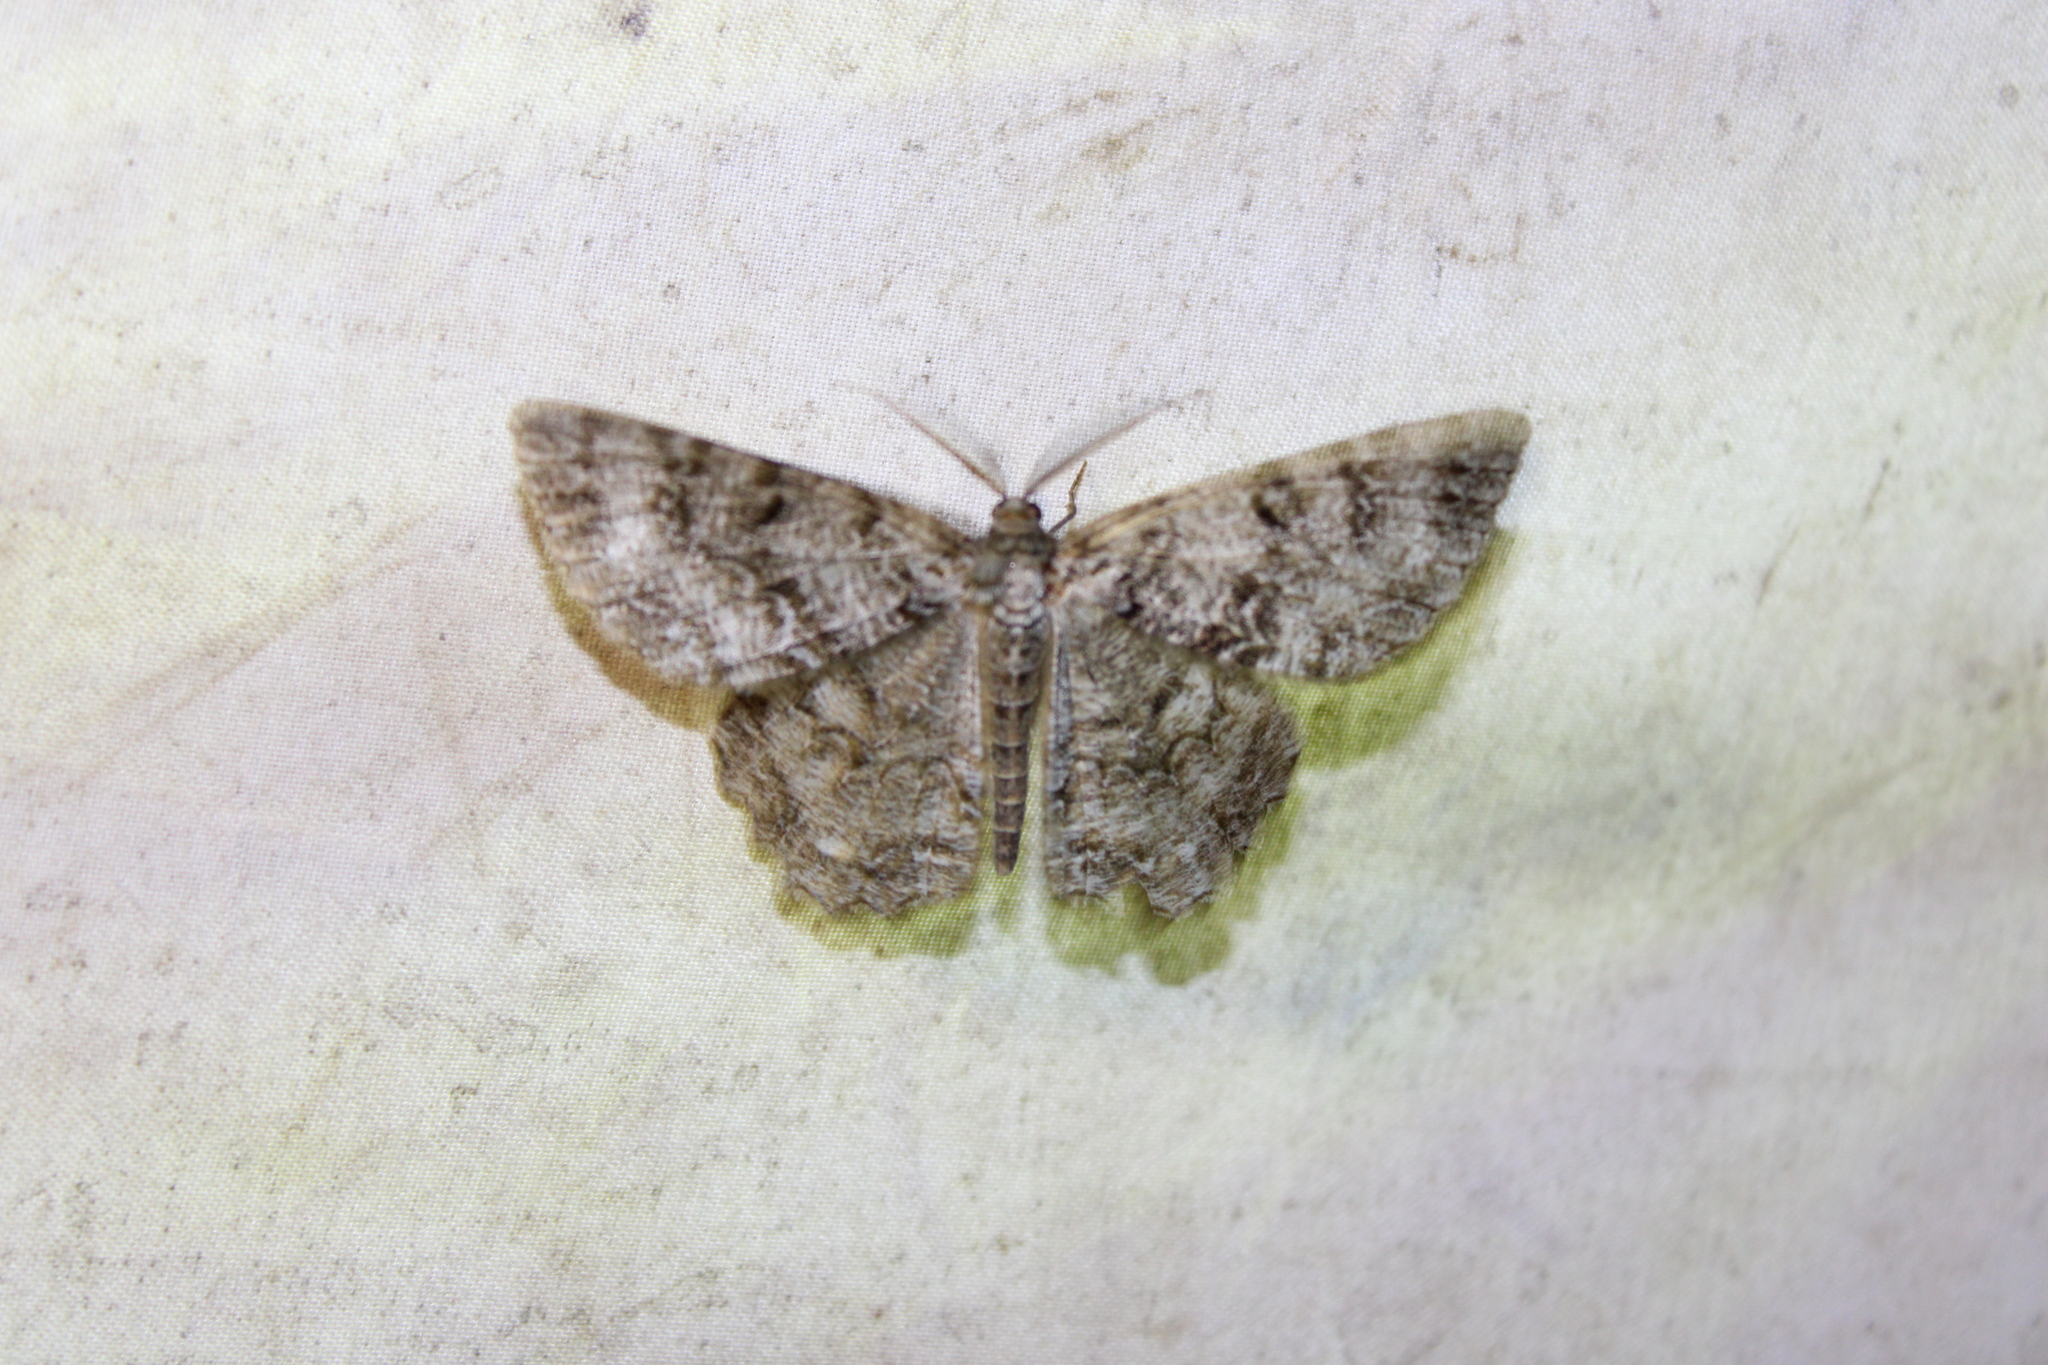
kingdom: Animalia
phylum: Arthropoda
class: Insecta
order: Lepidoptera
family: Geometridae
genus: Epimecis
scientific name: Epimecis hortaria
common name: Tulip-tree beauty
